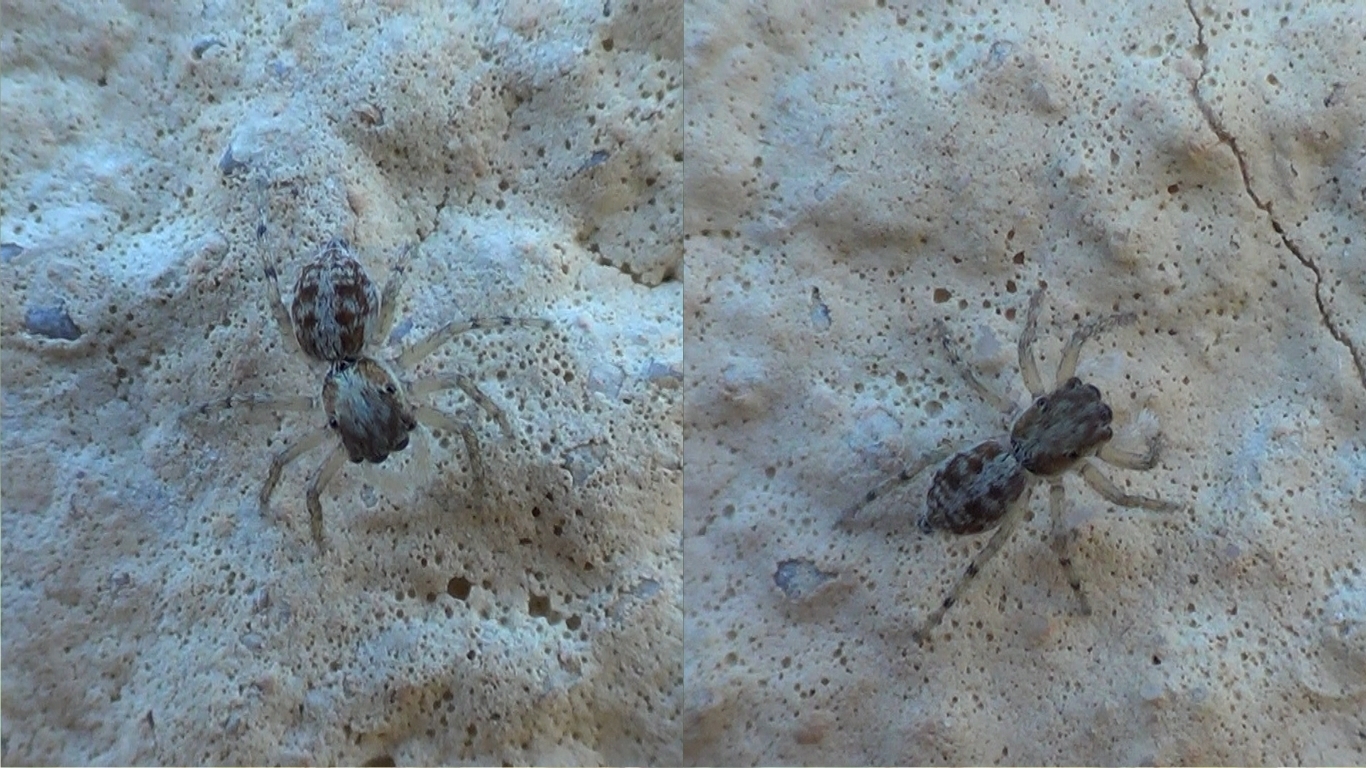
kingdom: Animalia
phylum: Arthropoda
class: Arachnida
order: Araneae
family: Salticidae
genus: Menemerus
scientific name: Menemerus semilimbatus
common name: Jumping spider
